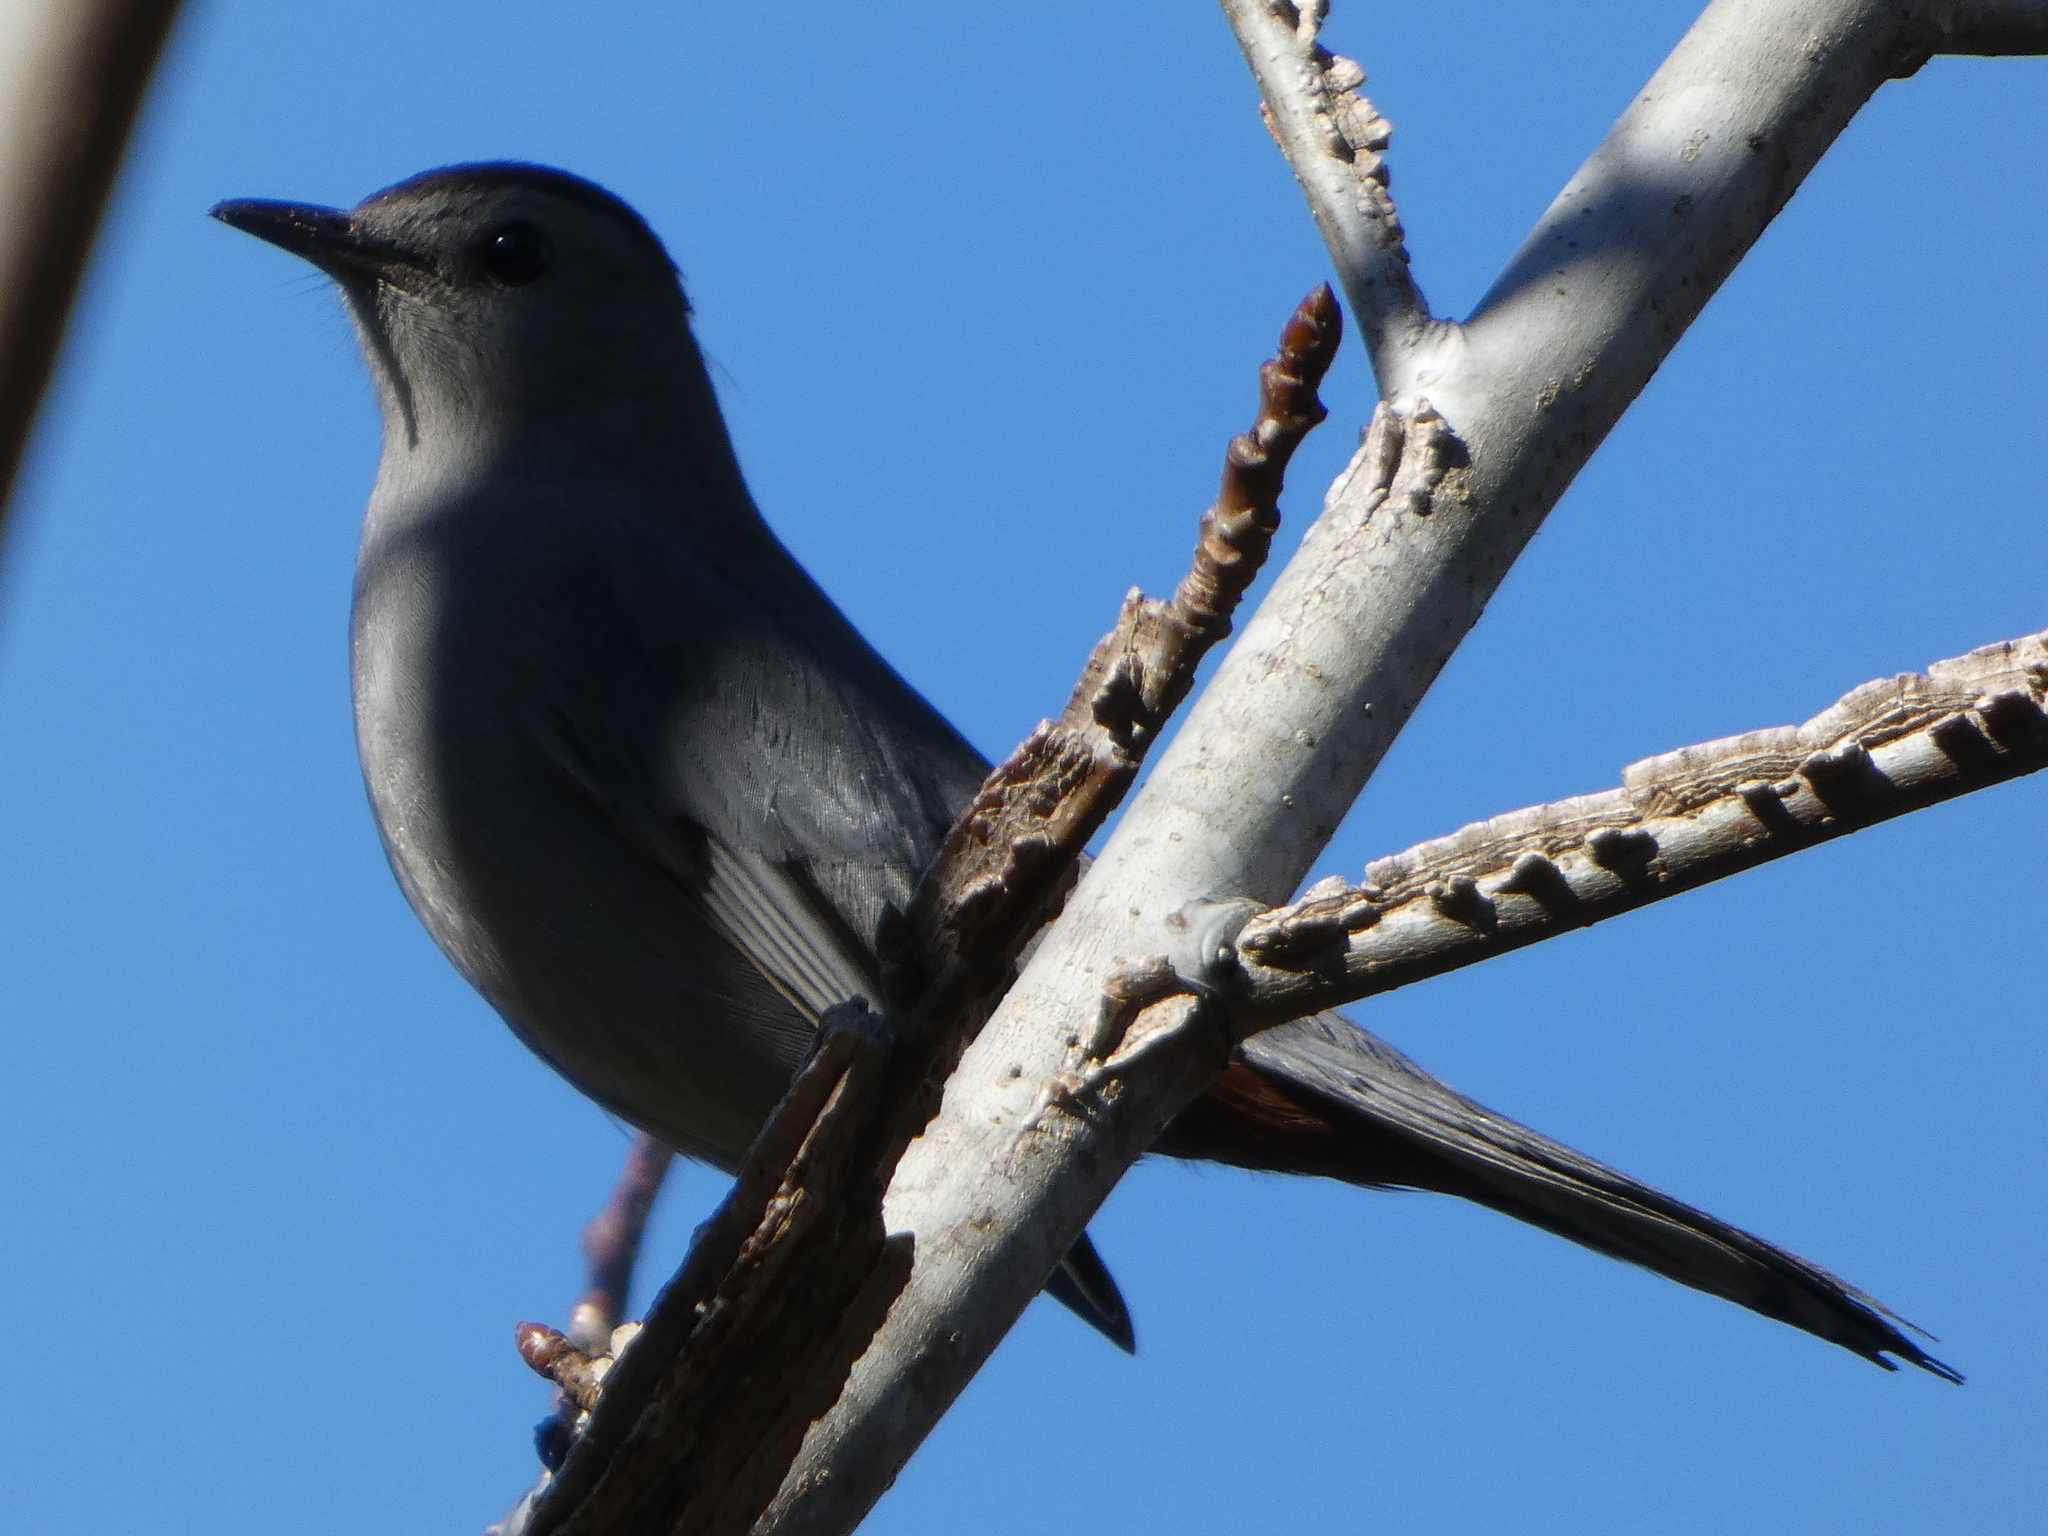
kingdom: Animalia
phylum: Chordata
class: Aves
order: Passeriformes
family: Mimidae
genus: Dumetella
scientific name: Dumetella carolinensis
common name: Gray catbird
